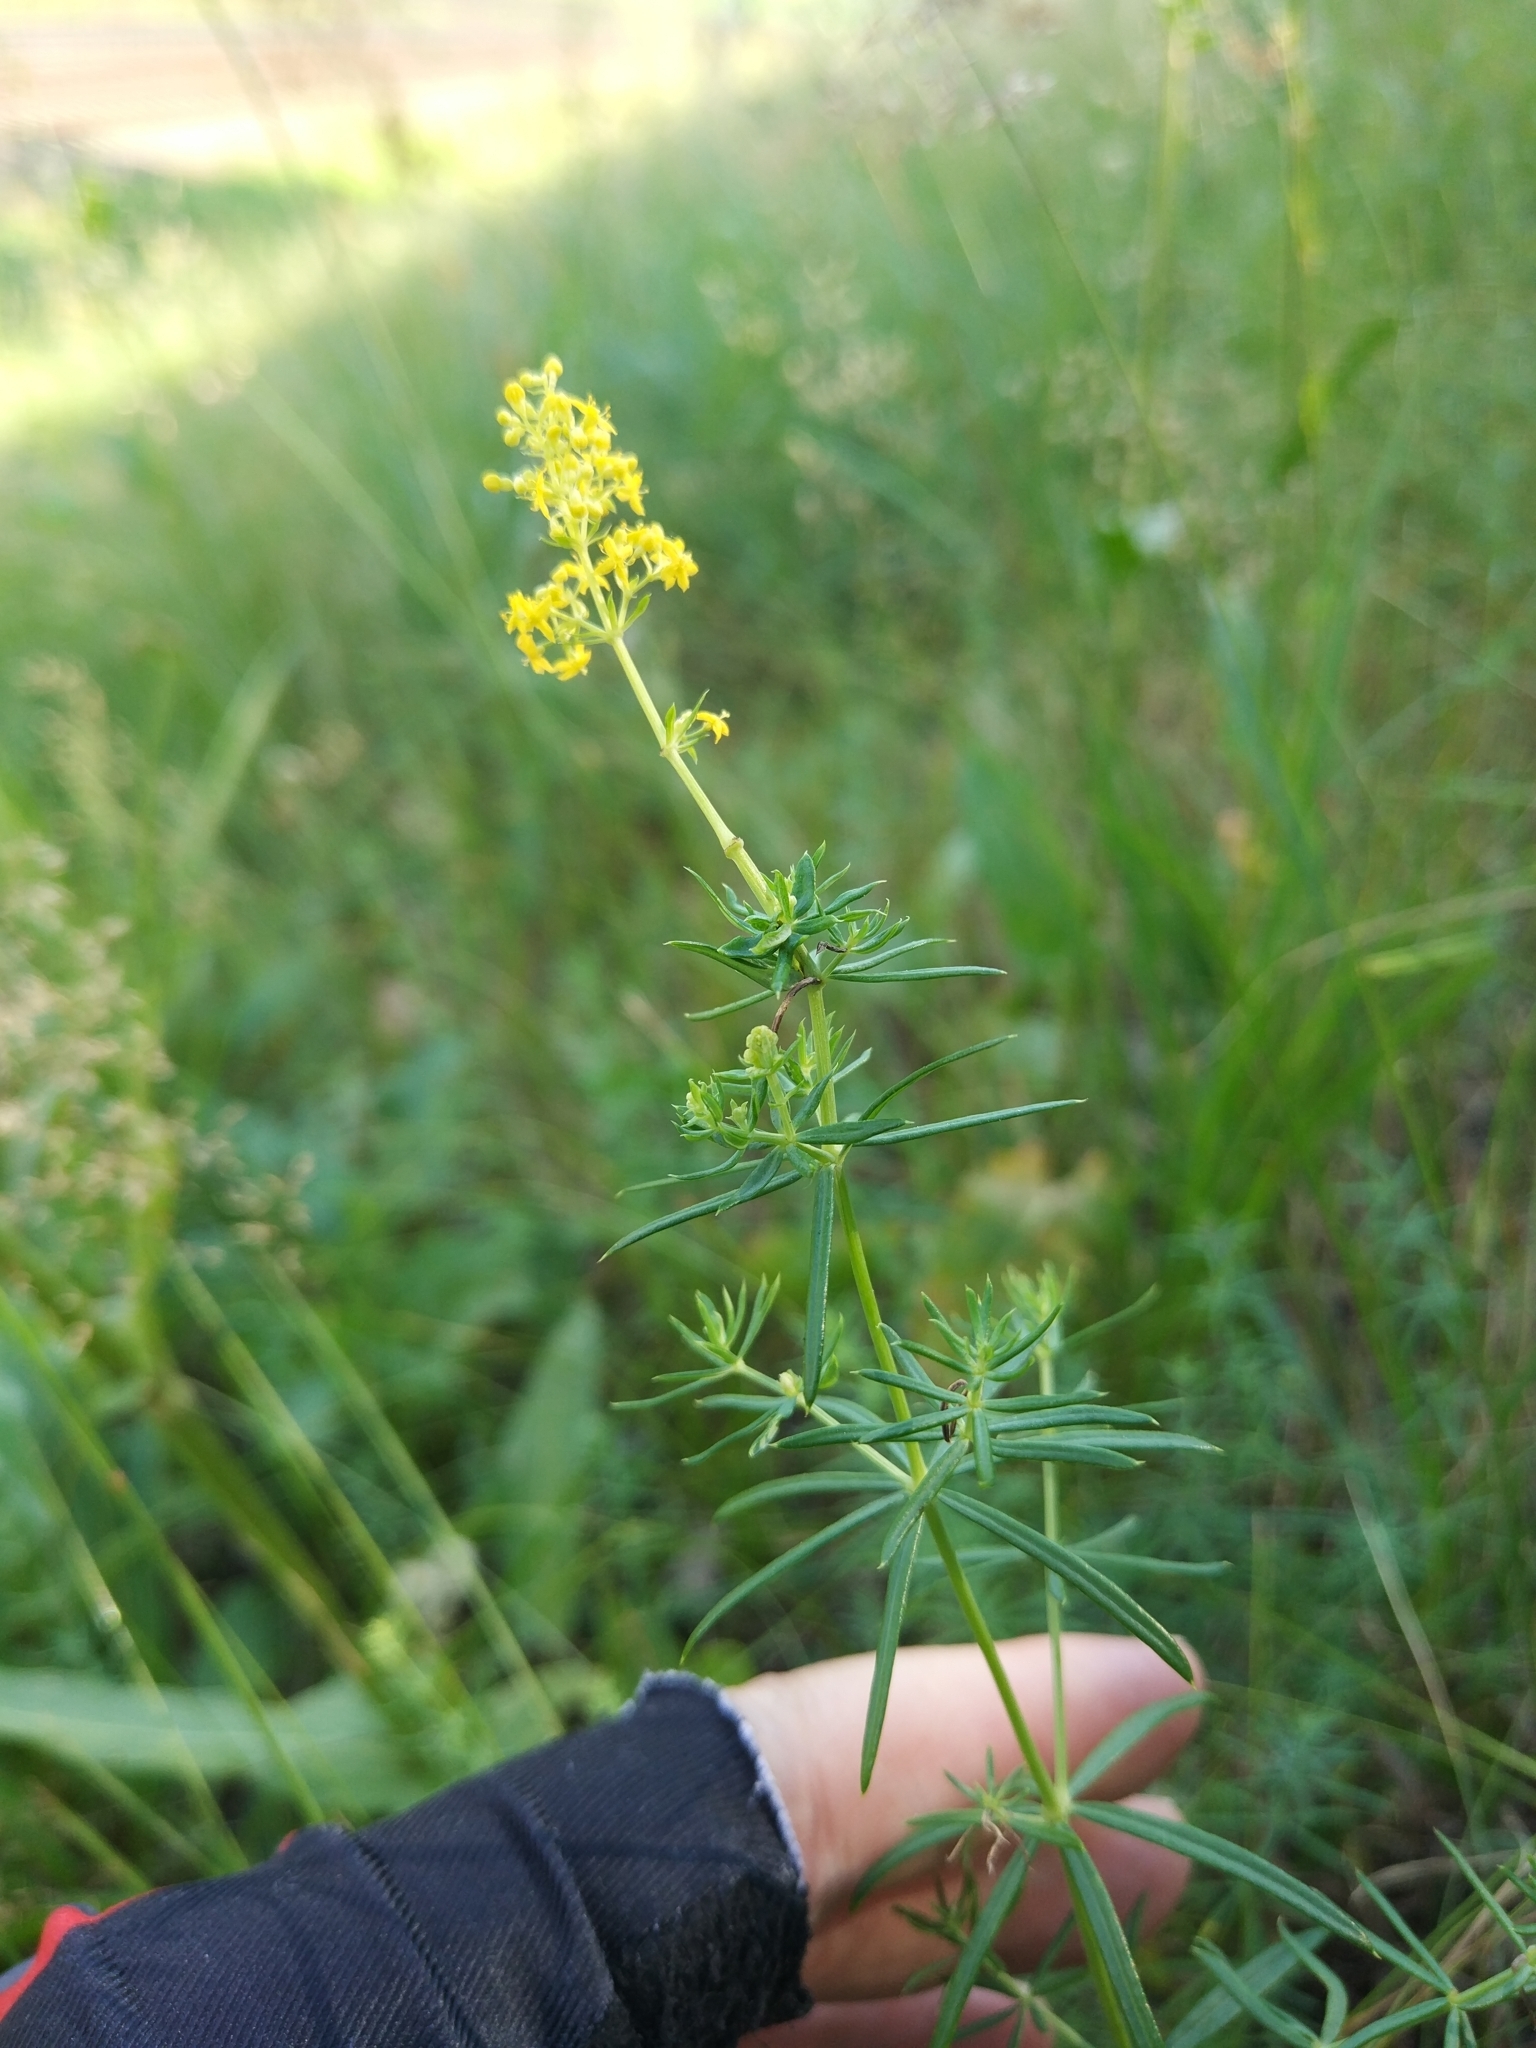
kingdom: Plantae
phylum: Tracheophyta
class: Magnoliopsida
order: Gentianales
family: Rubiaceae
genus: Galium
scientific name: Galium verum
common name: Lady's bedstraw
